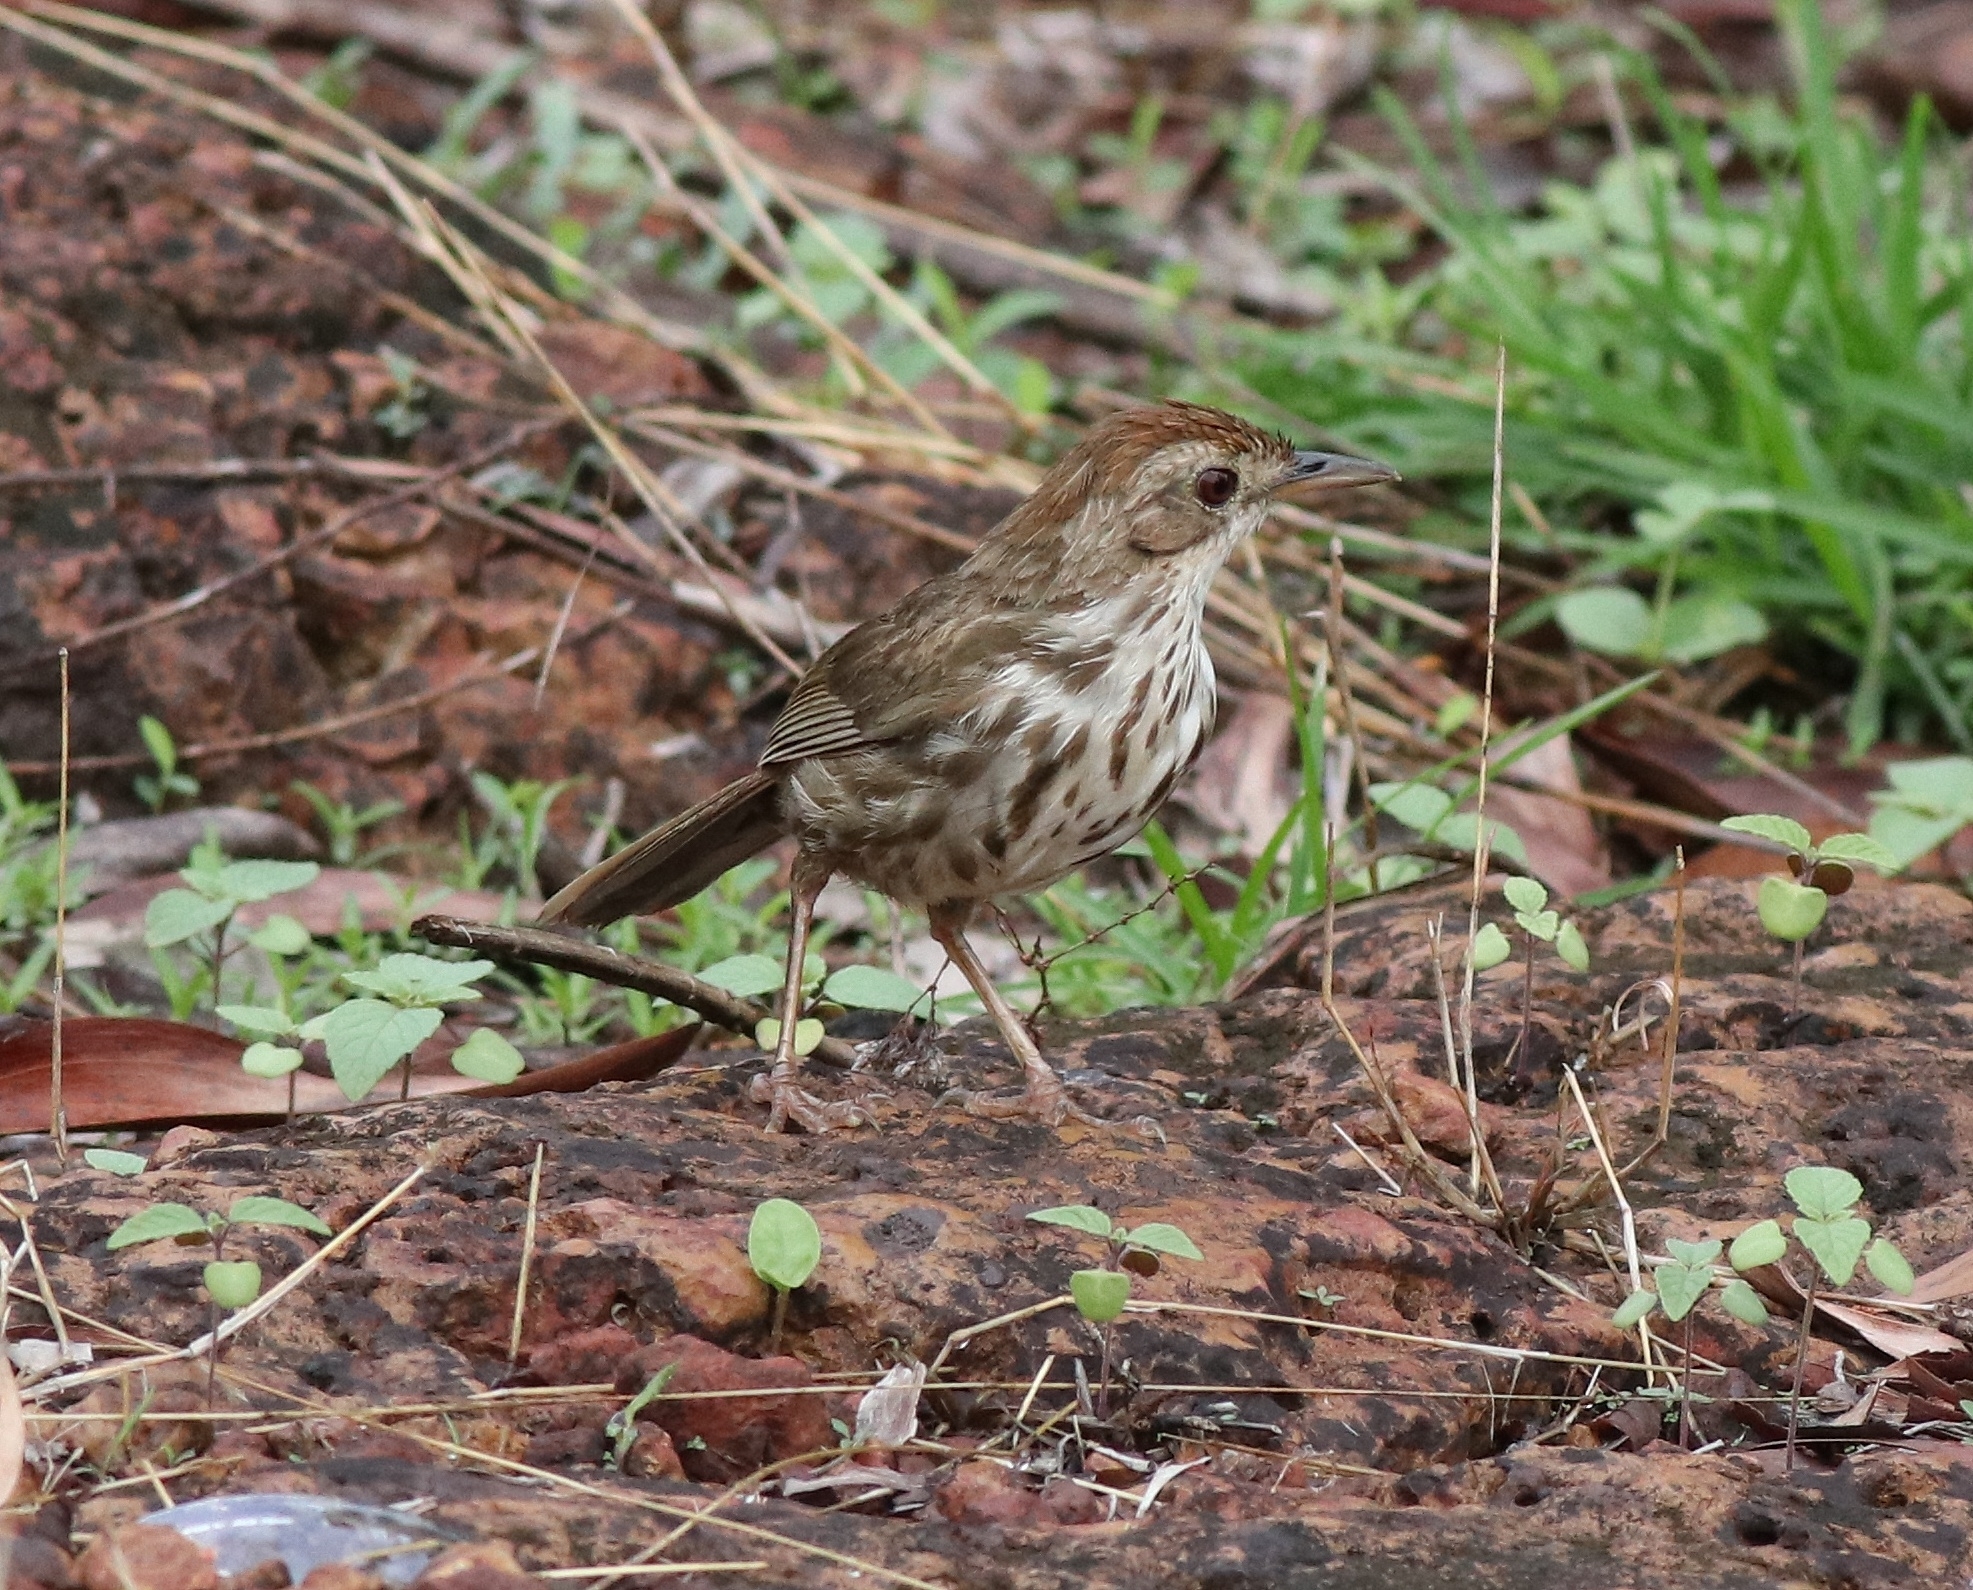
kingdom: Animalia
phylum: Chordata
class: Aves
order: Passeriformes
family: Pellorneidae
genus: Pellorneum
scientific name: Pellorneum ruficeps
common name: Puff-throated babbler
